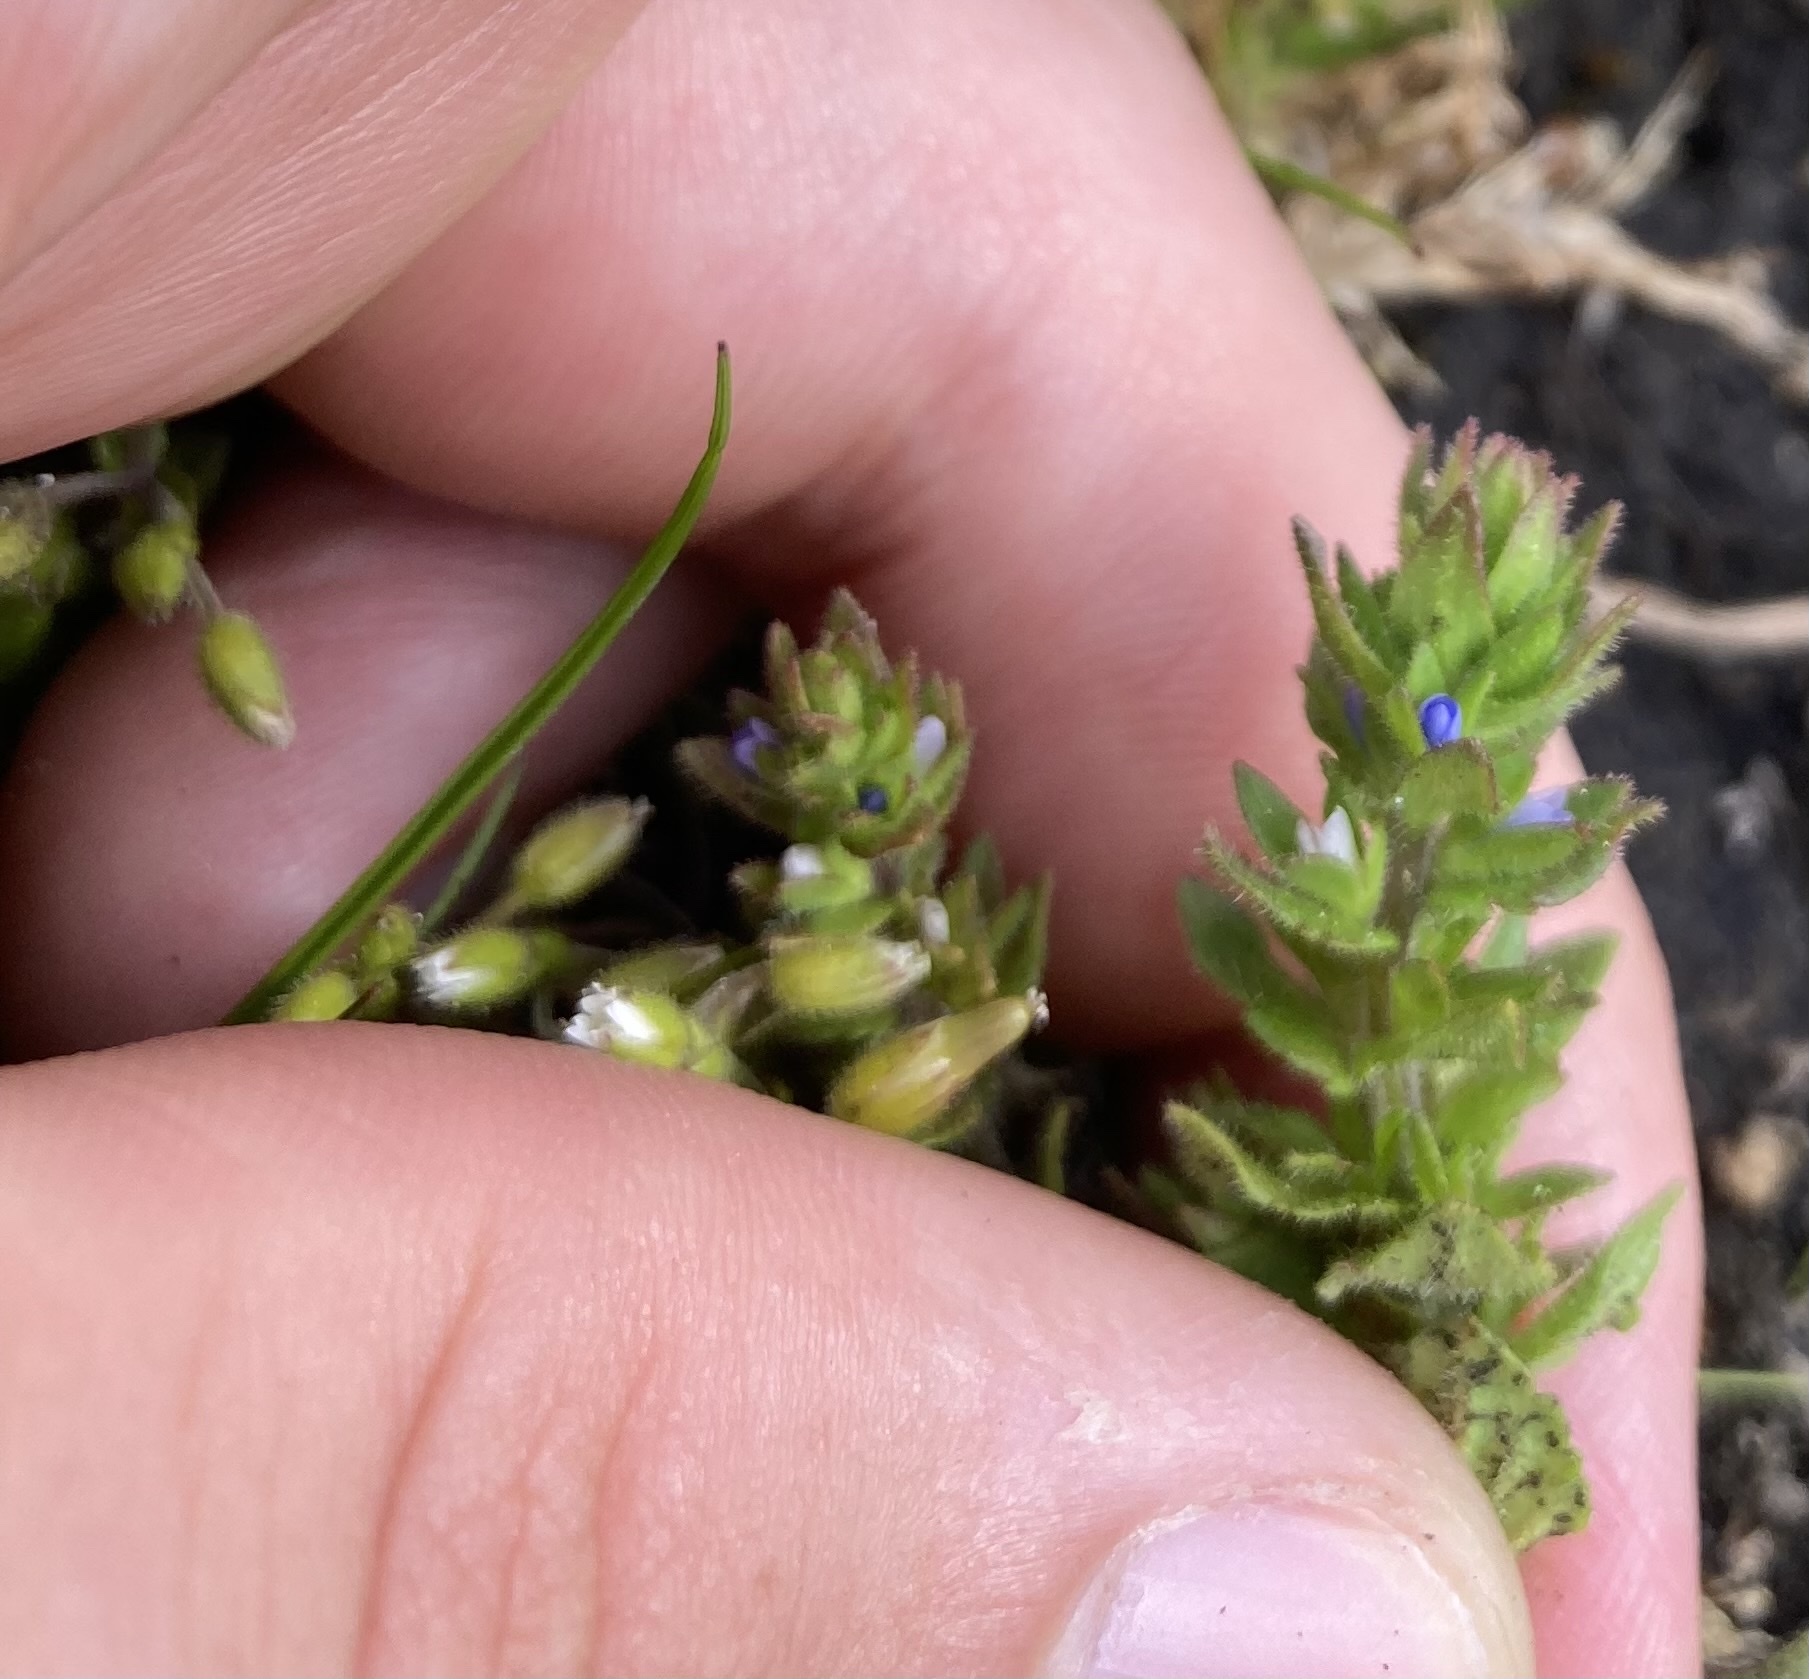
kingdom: Plantae
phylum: Tracheophyta
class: Magnoliopsida
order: Lamiales
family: Plantaginaceae
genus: Veronica
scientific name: Veronica arvensis
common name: Corn speedwell
